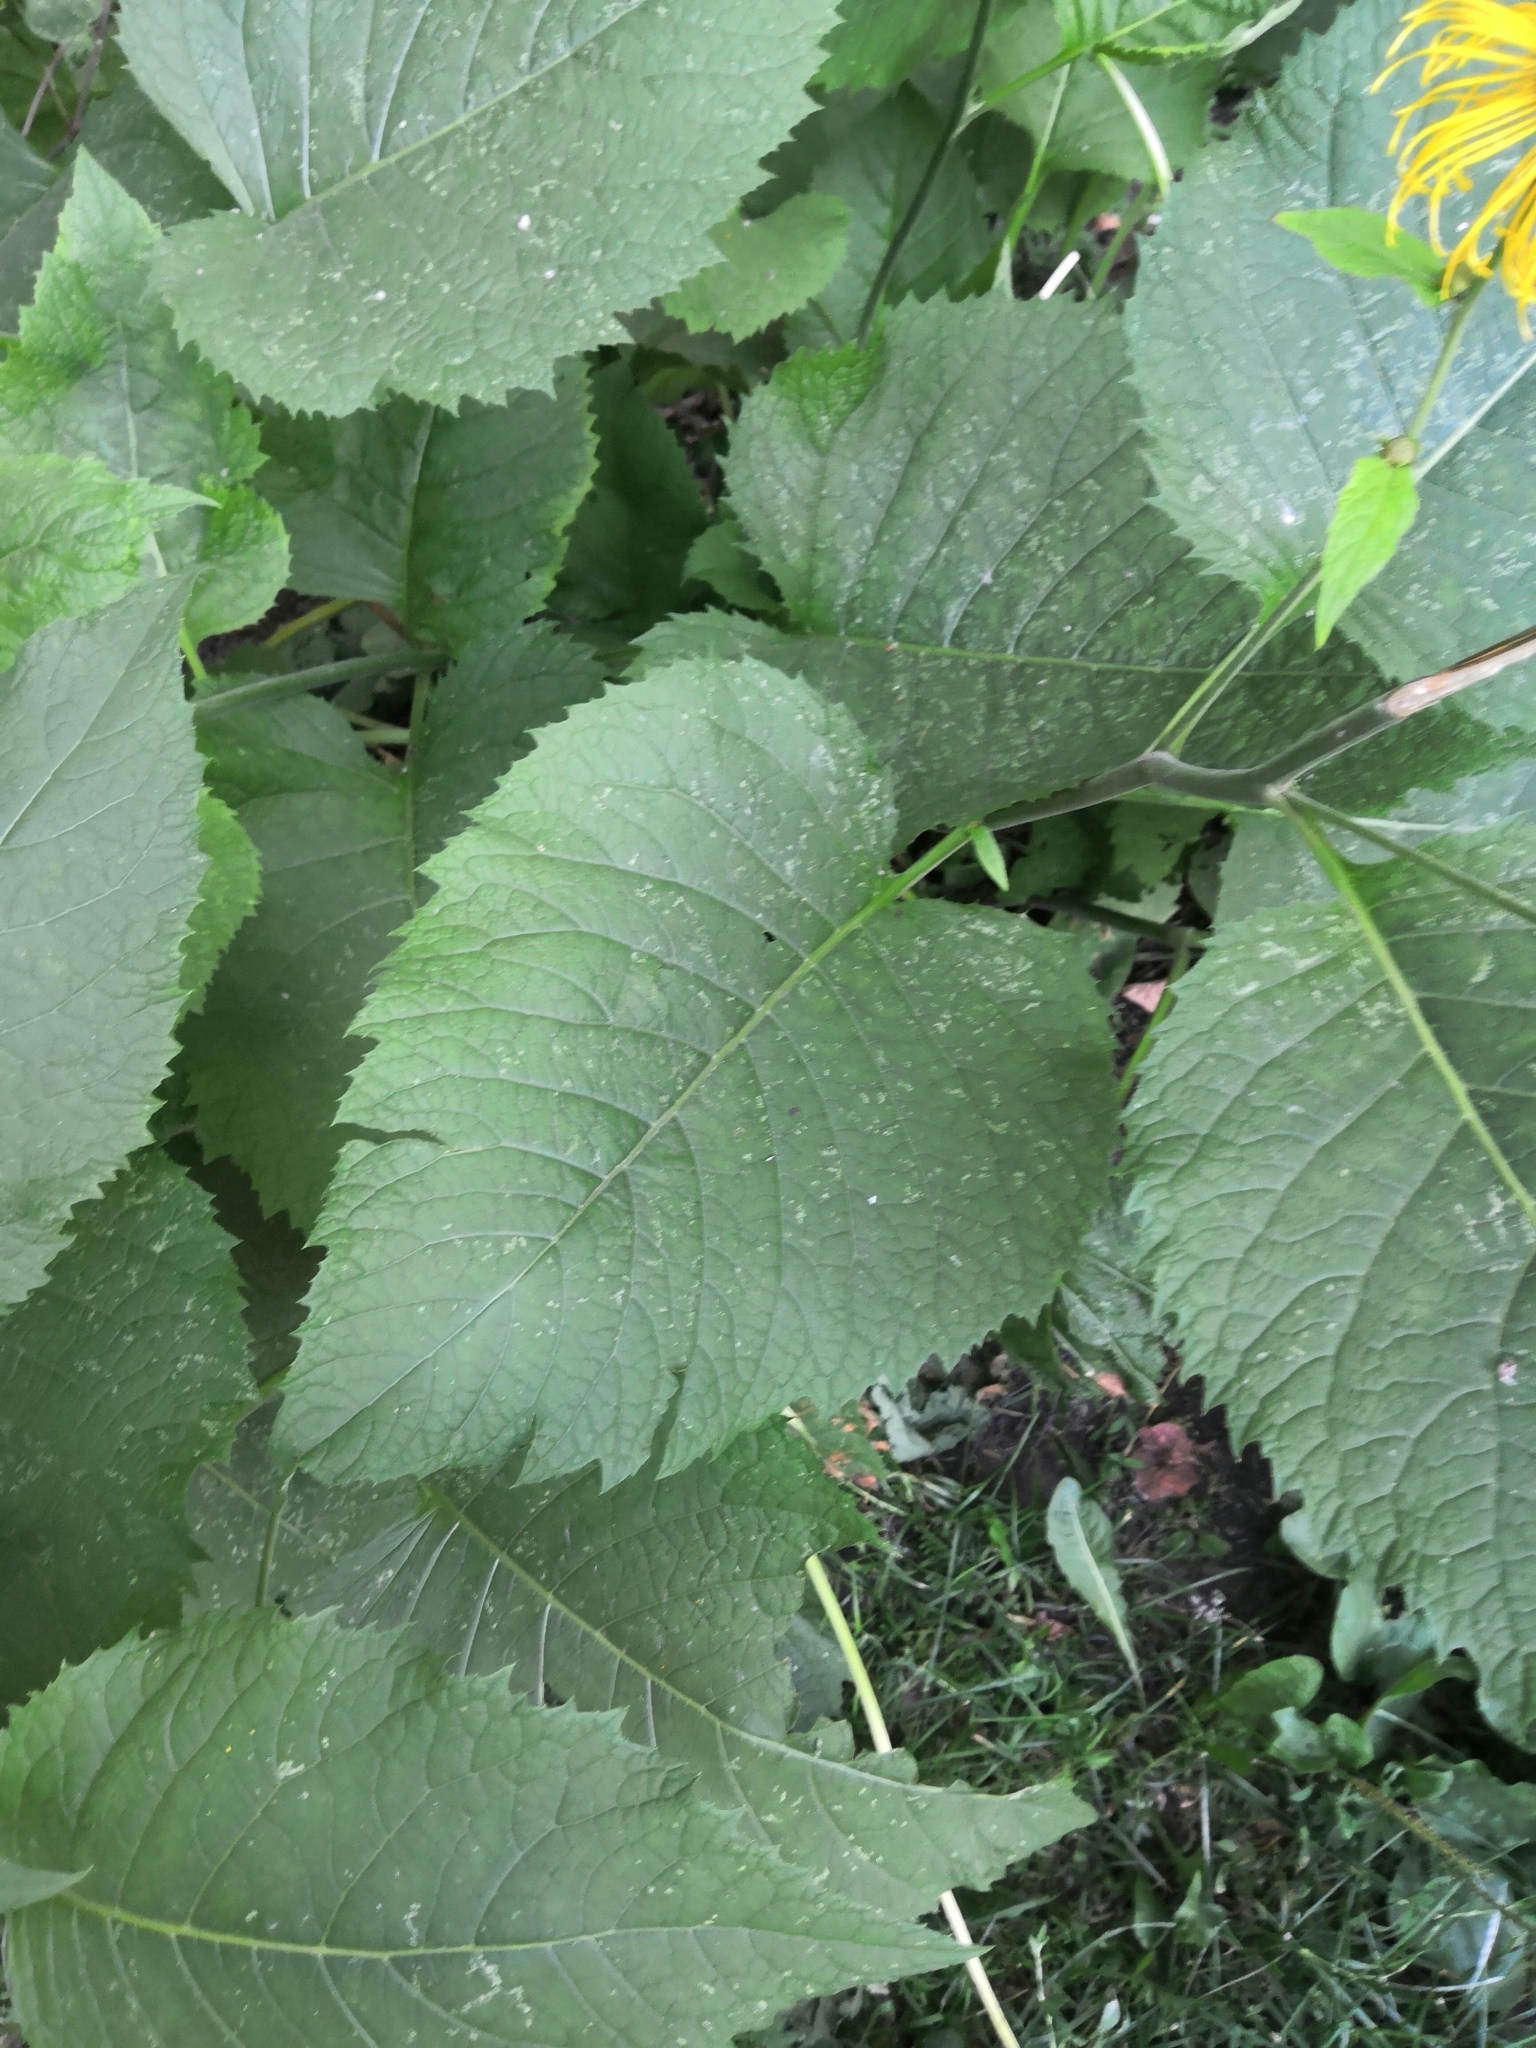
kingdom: Plantae
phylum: Tracheophyta
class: Magnoliopsida
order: Asterales
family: Asteraceae
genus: Telekia
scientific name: Telekia speciosa
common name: Yellow oxeye
